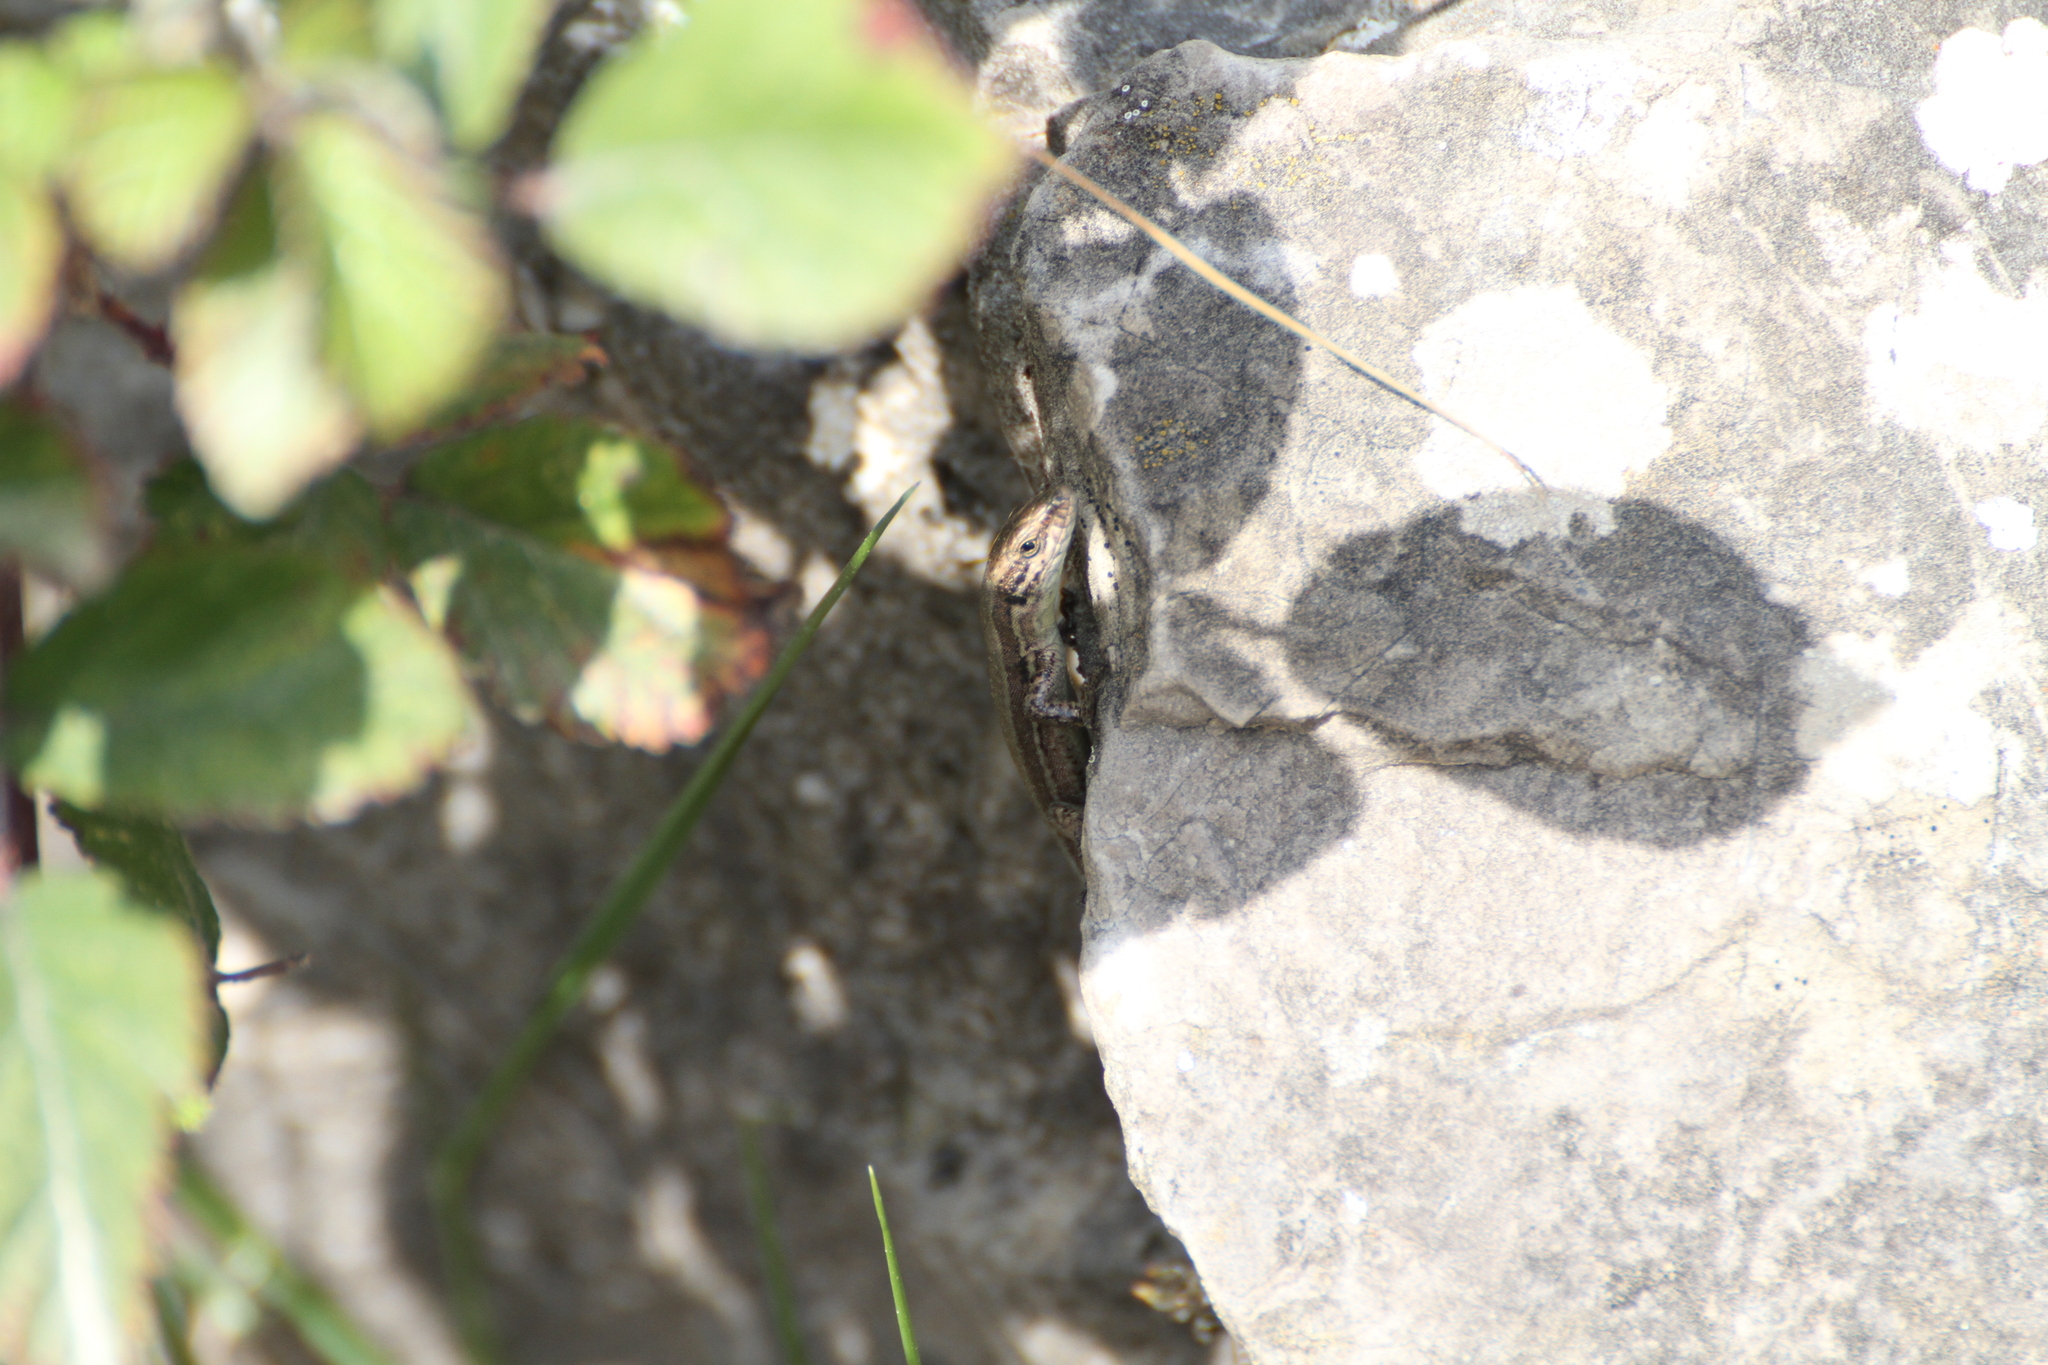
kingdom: Animalia
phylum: Chordata
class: Squamata
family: Lacertidae
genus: Podarcis
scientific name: Podarcis muralis
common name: Common wall lizard
